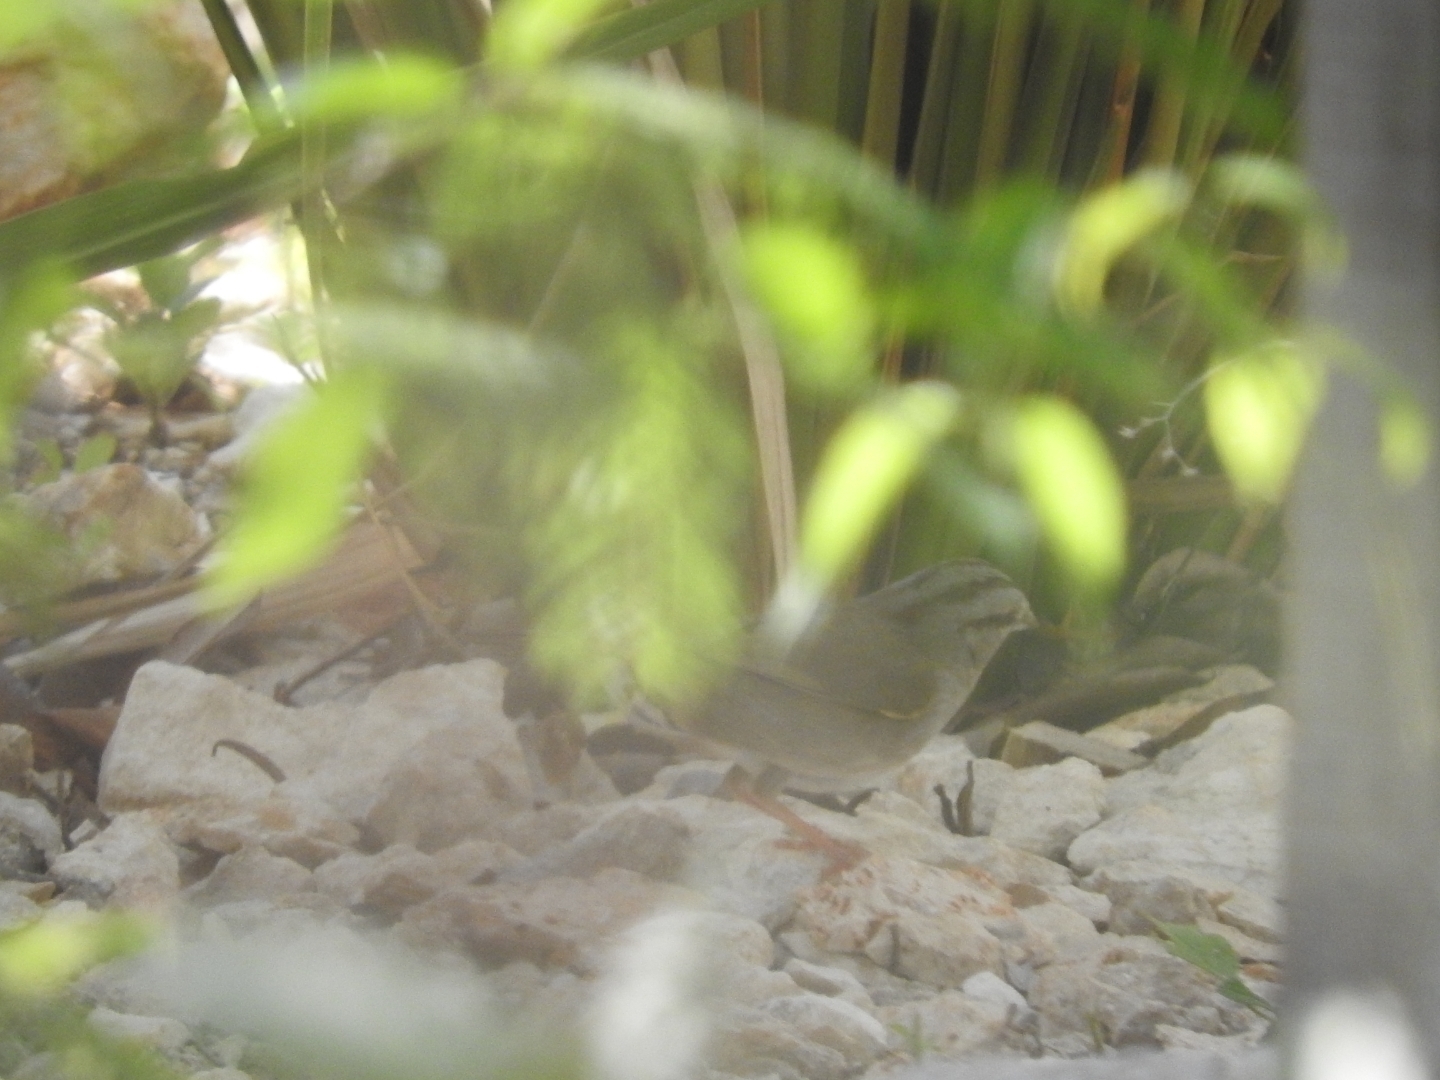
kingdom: Animalia
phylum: Chordata
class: Aves
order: Passeriformes
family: Passerellidae
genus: Arremonops
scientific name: Arremonops rufivirgatus
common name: Olive sparrow
